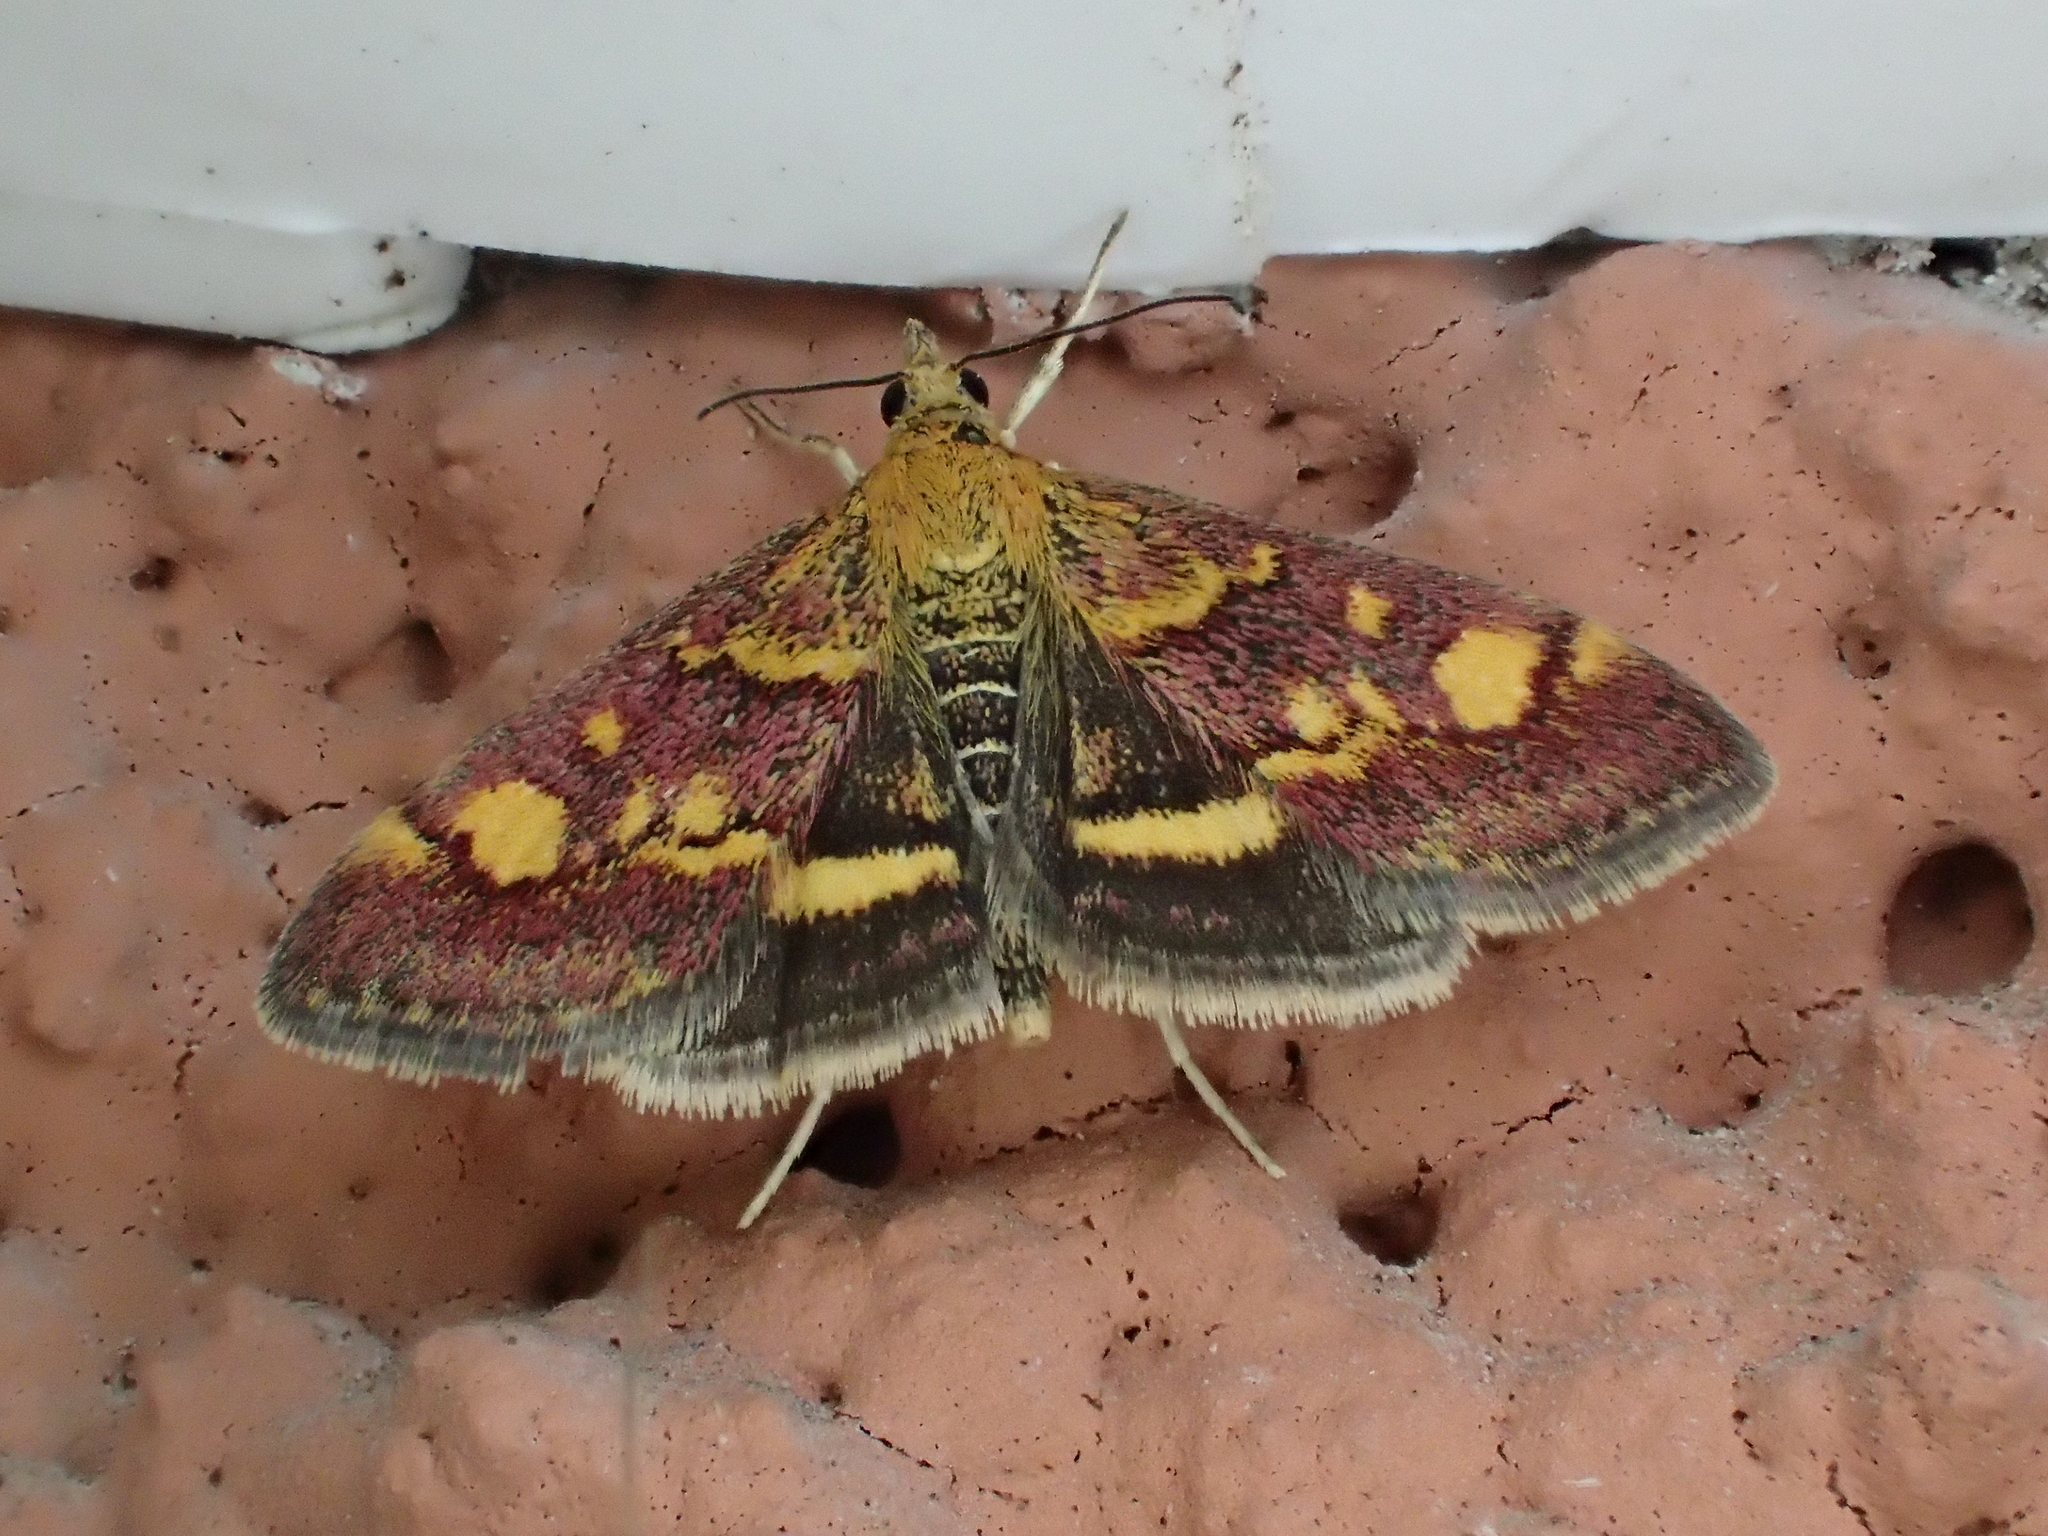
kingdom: Animalia
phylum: Arthropoda
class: Insecta
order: Lepidoptera
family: Crambidae
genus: Pyrausta
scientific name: Pyrausta aurata
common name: Small purple & gold
